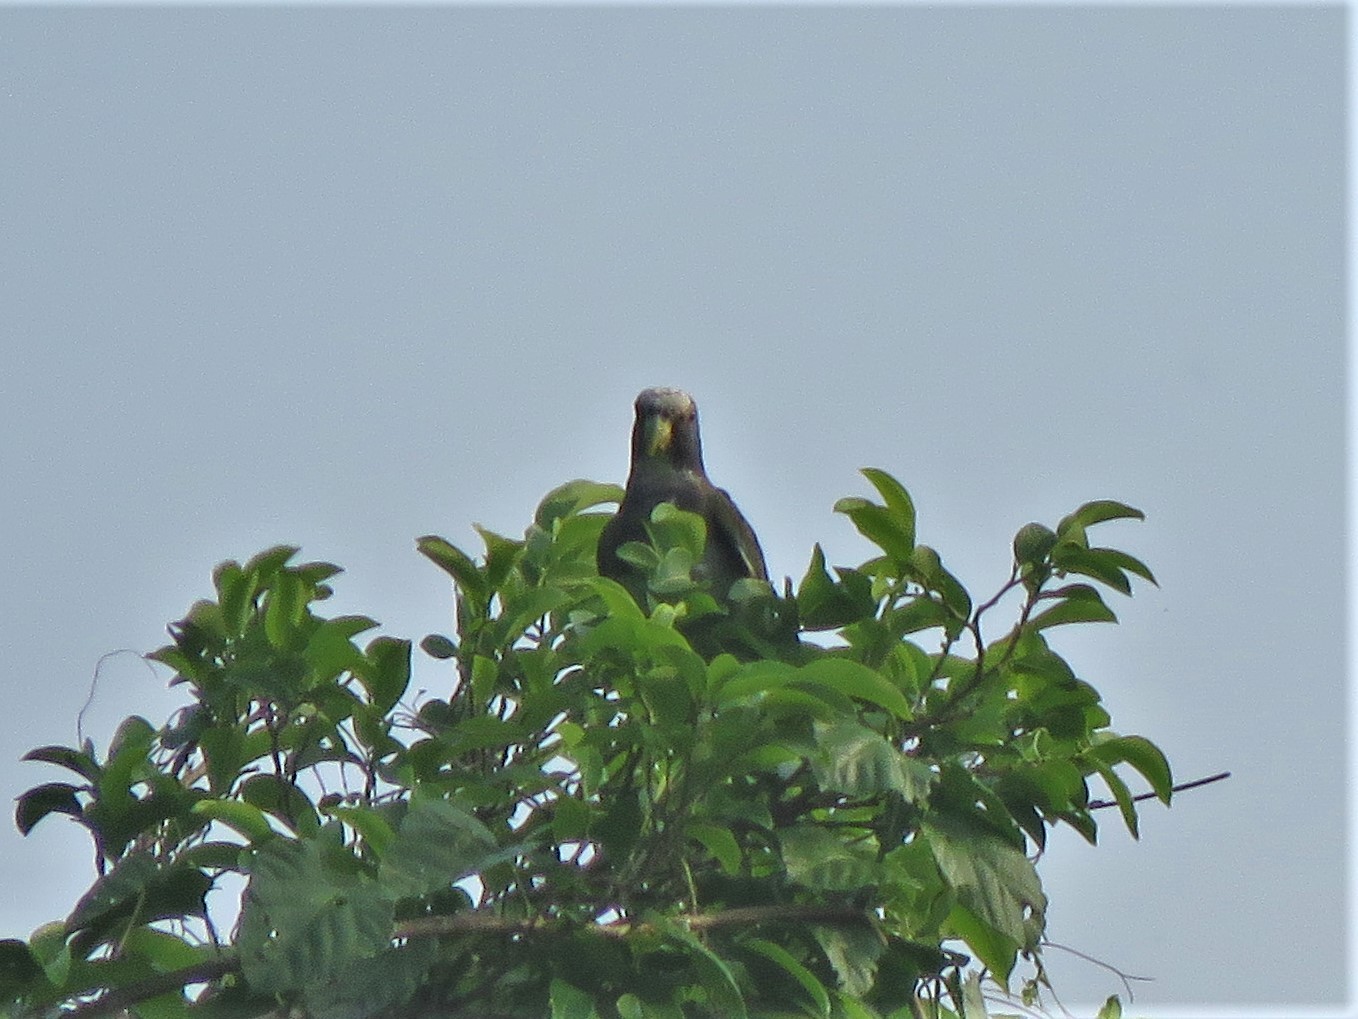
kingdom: Animalia
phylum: Chordata
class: Aves
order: Psittaciformes
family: Psittacidae
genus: Pionus
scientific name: Pionus senilis
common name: White-crowned parrot
